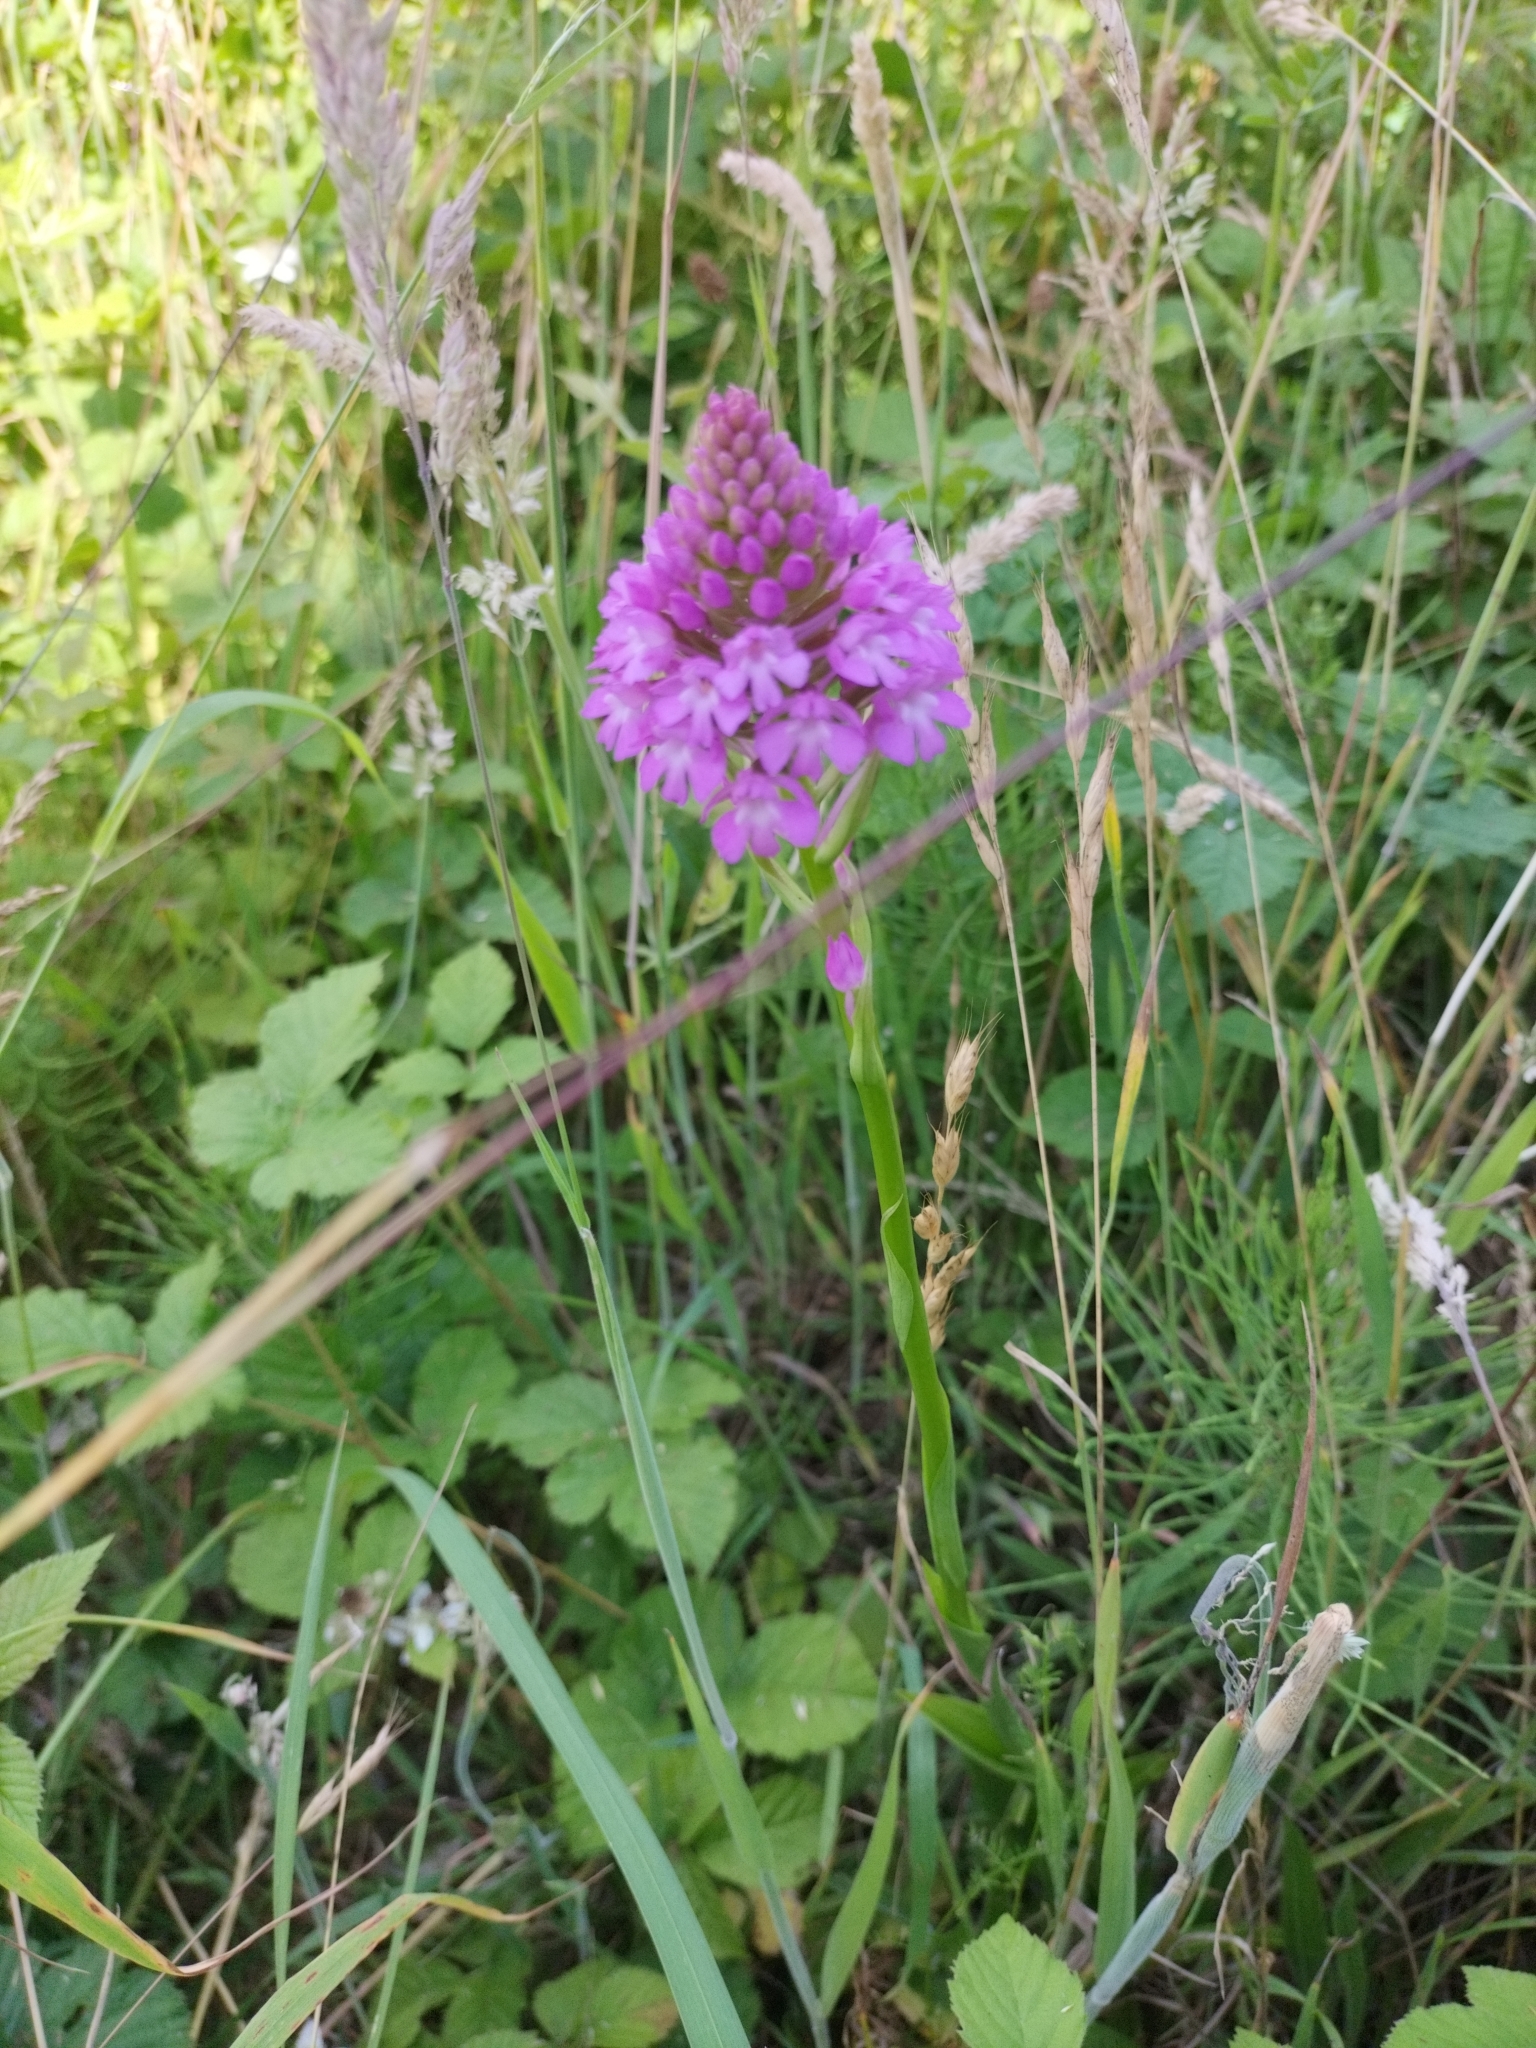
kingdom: Plantae
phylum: Tracheophyta
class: Liliopsida
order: Asparagales
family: Orchidaceae
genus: Anacamptis
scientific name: Anacamptis pyramidalis
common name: Pyramidal orchid
